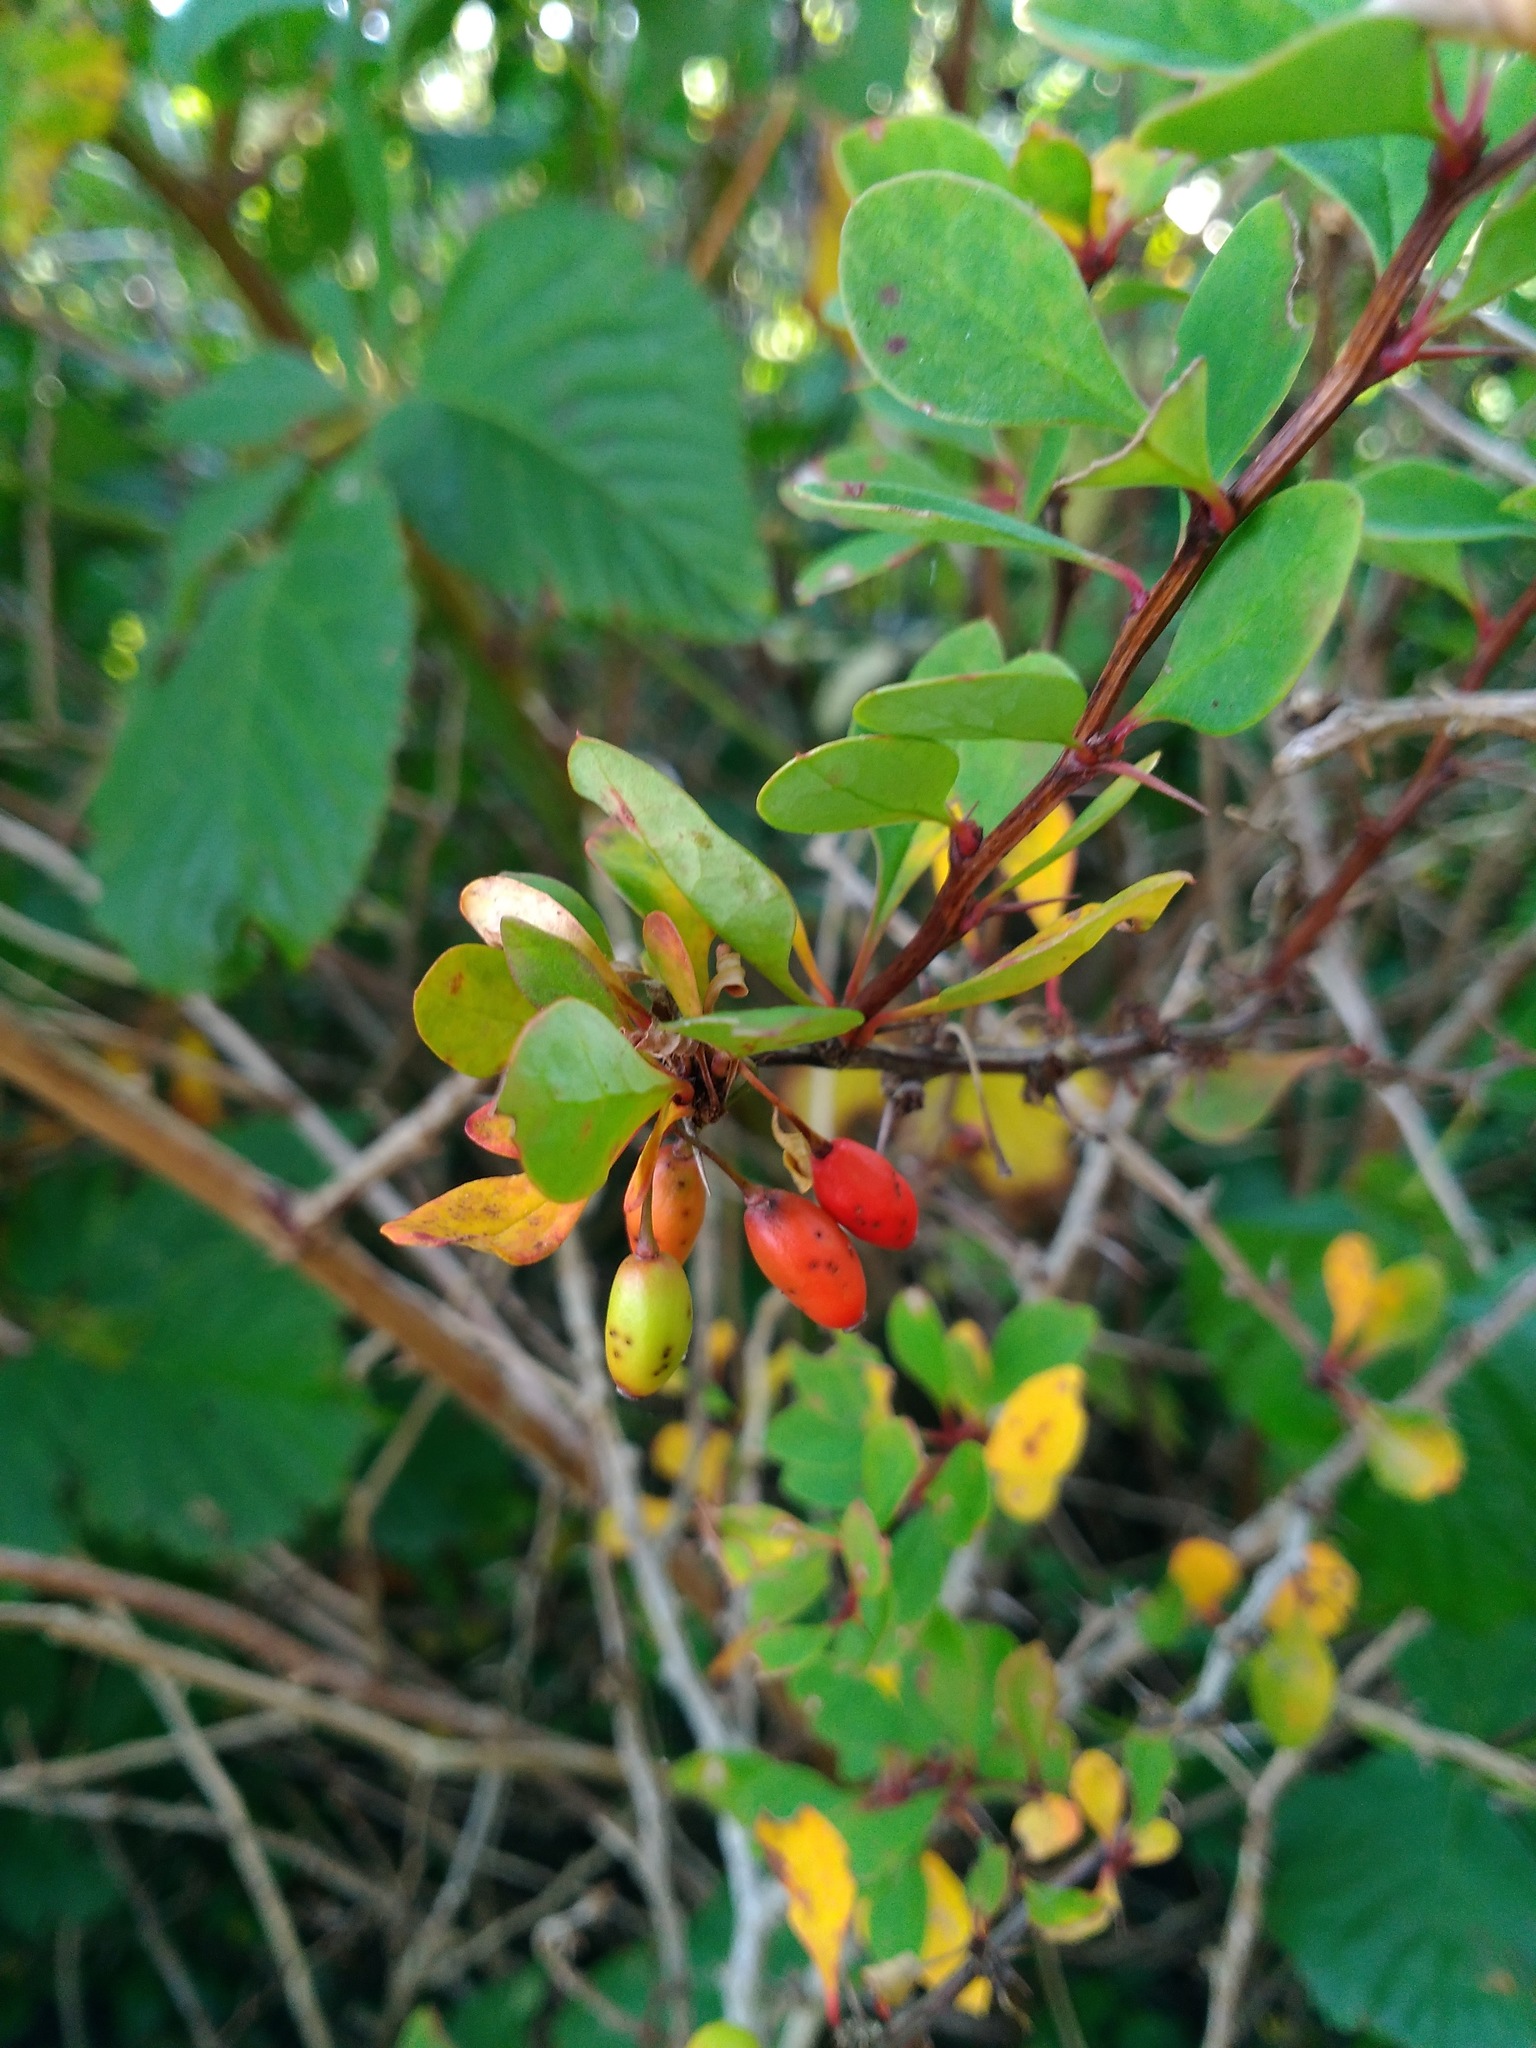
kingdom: Plantae
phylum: Tracheophyta
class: Magnoliopsida
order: Ranunculales
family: Berberidaceae
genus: Berberis
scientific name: Berberis thunbergii
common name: Japanese barberry
